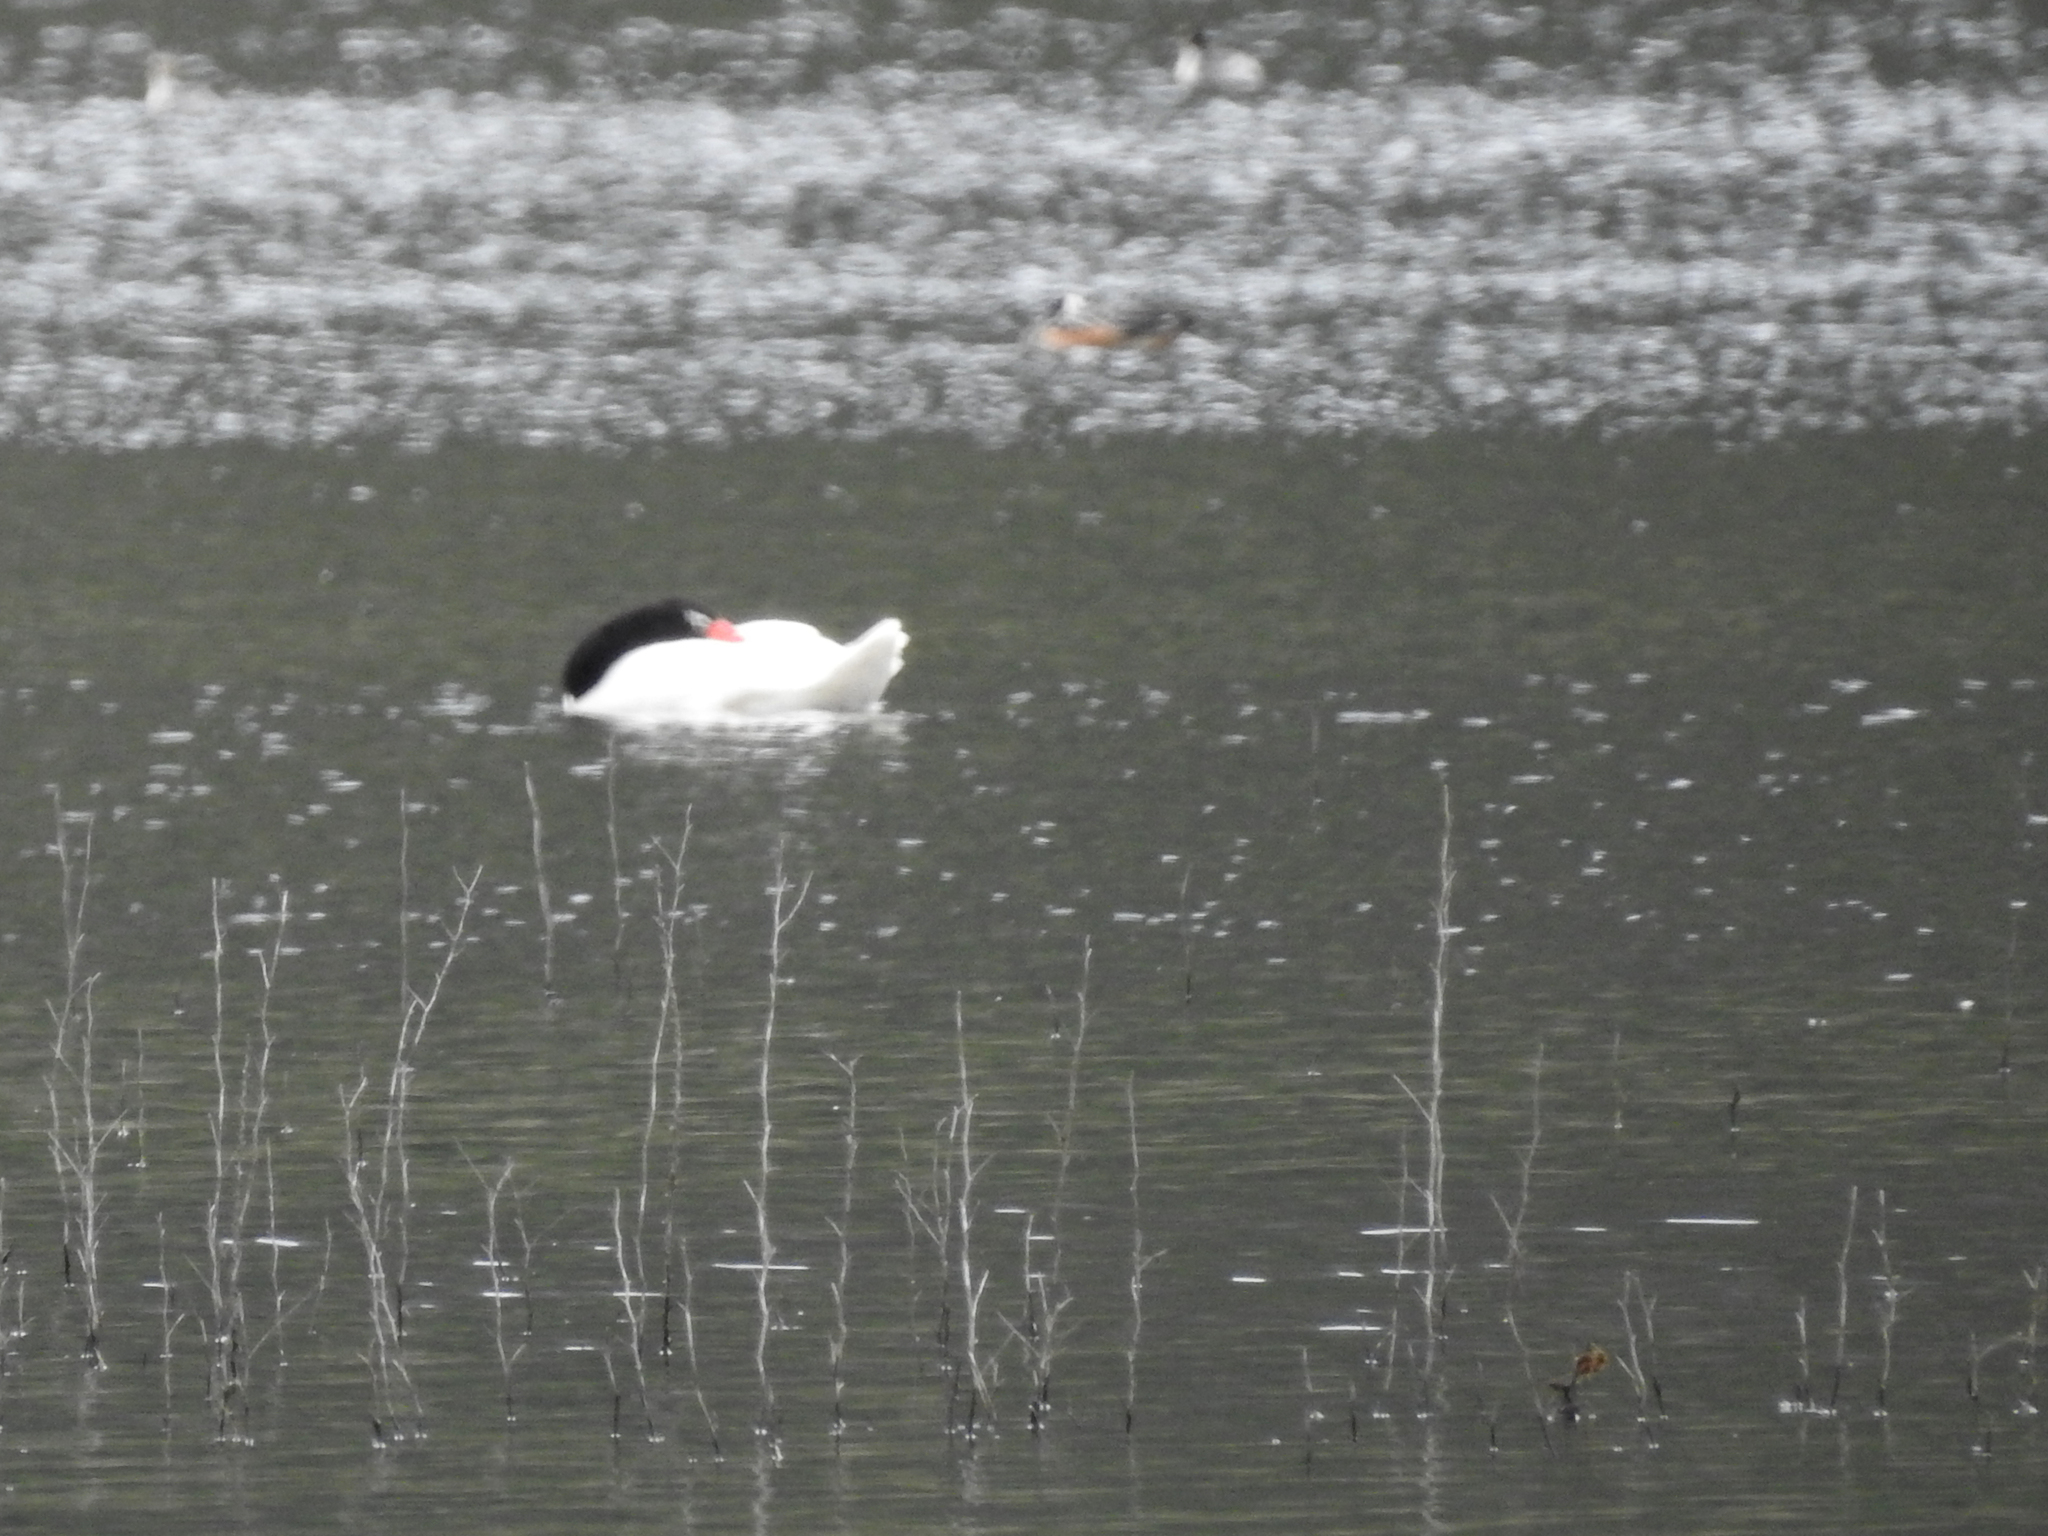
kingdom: Animalia
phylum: Chordata
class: Aves
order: Anseriformes
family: Anatidae
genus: Cygnus
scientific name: Cygnus melancoryphus
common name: Black-necked swan
